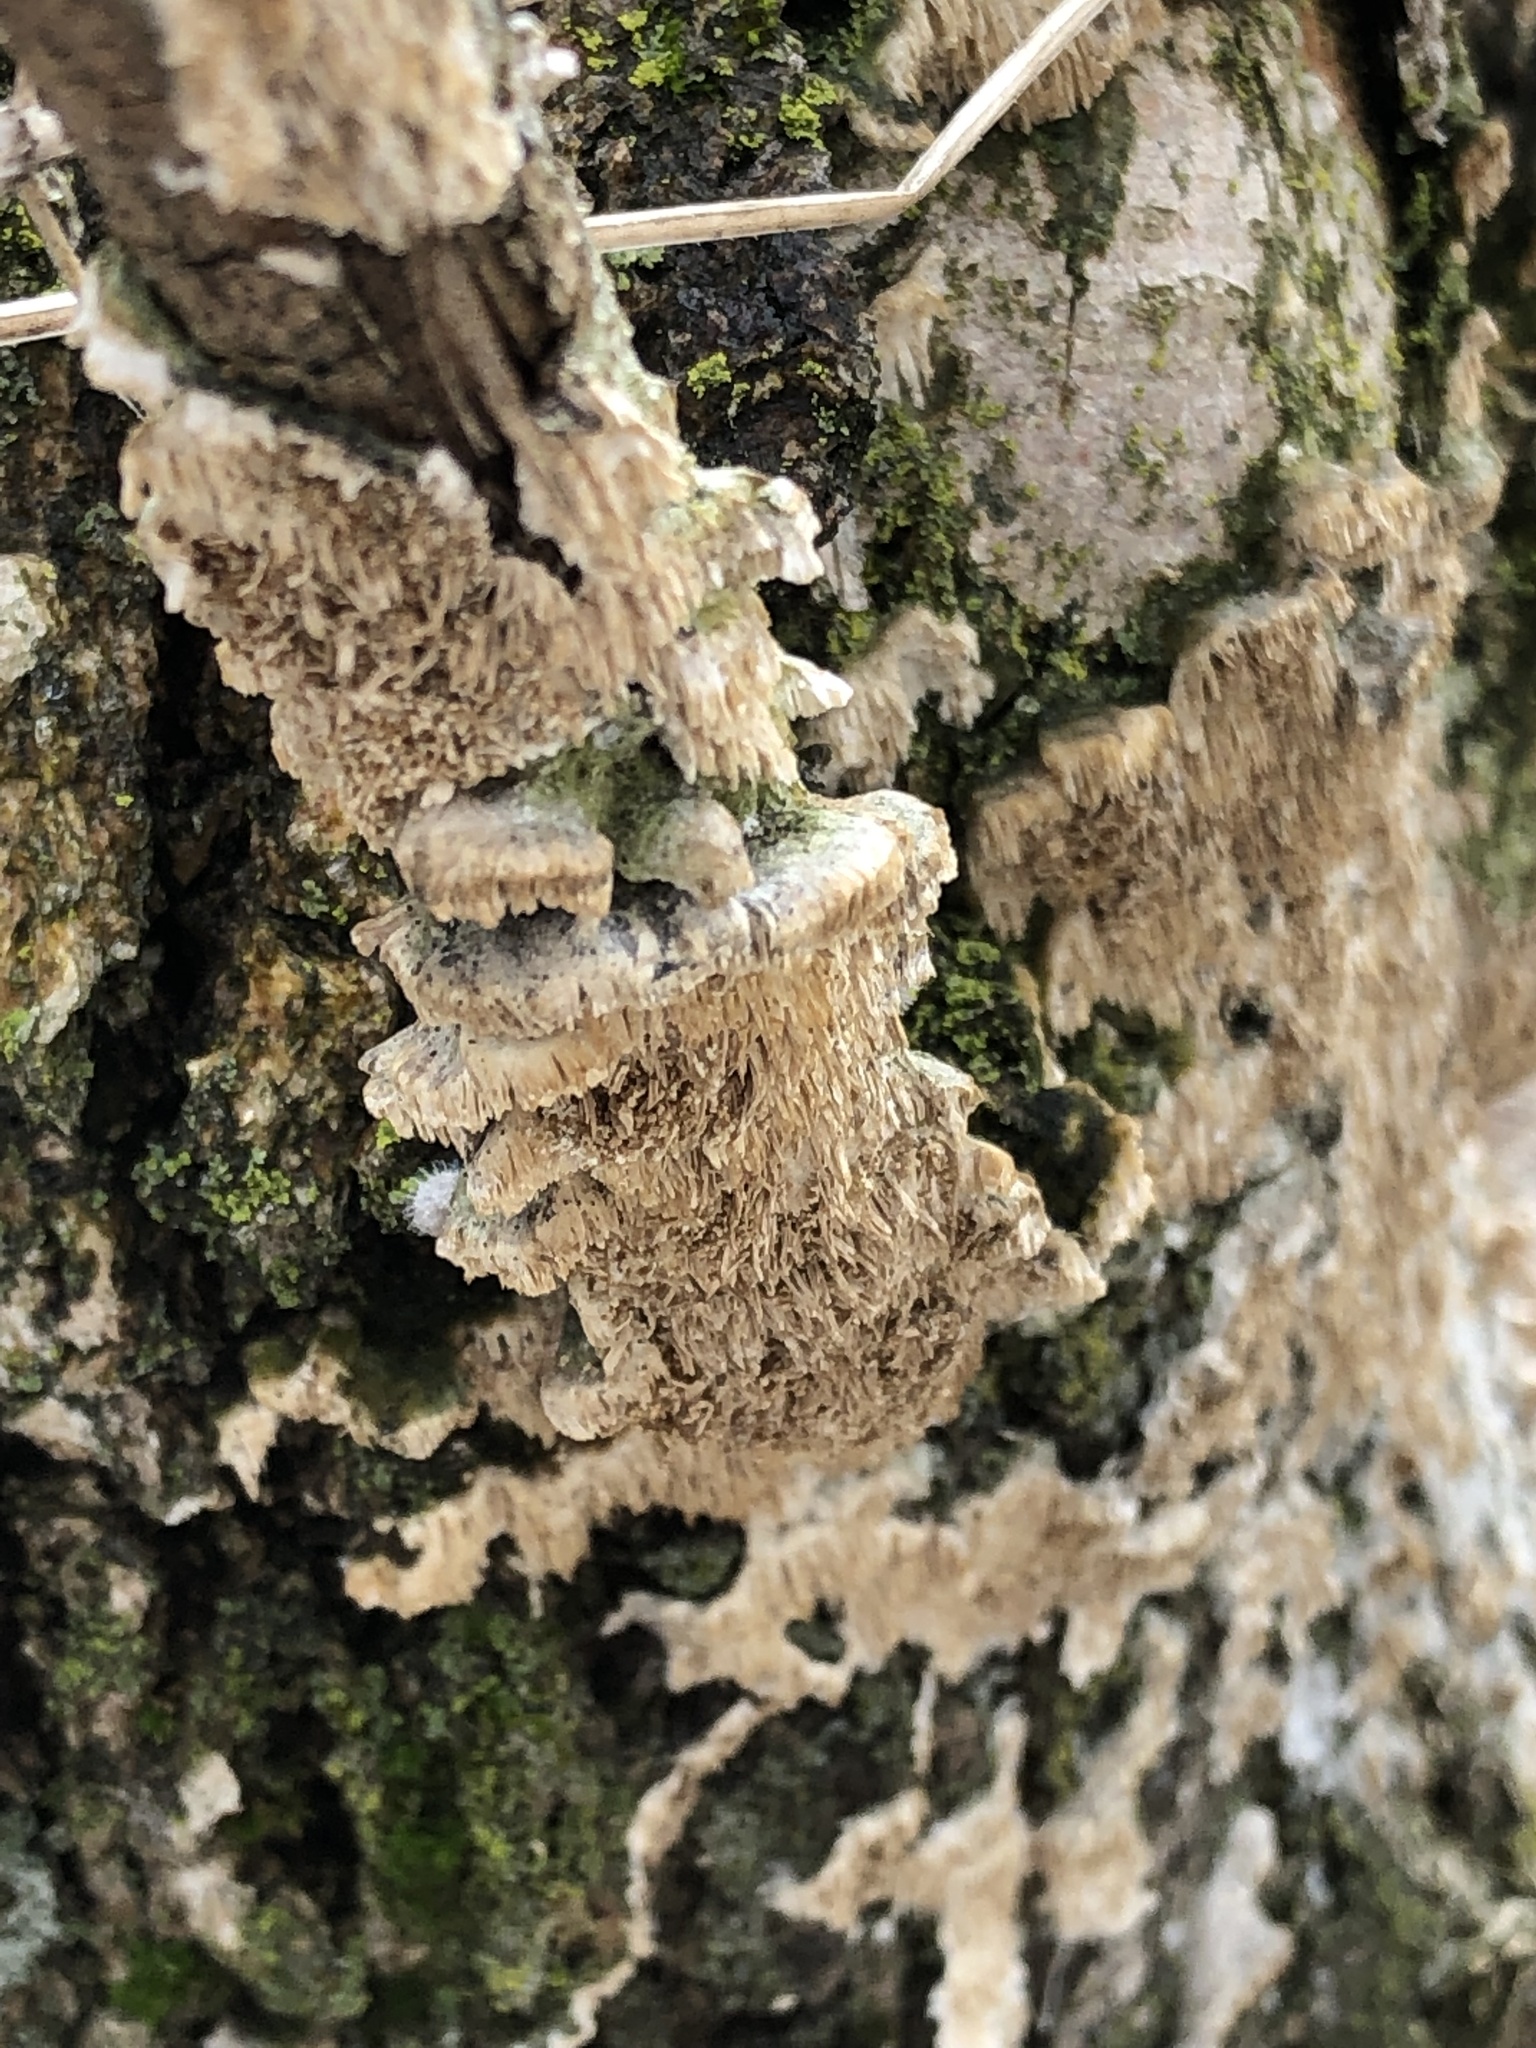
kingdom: Fungi
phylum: Basidiomycota
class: Agaricomycetes
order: Polyporales
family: Irpicaceae
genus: Irpex
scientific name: Irpex lacteus
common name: Milk-white toothed polypore
